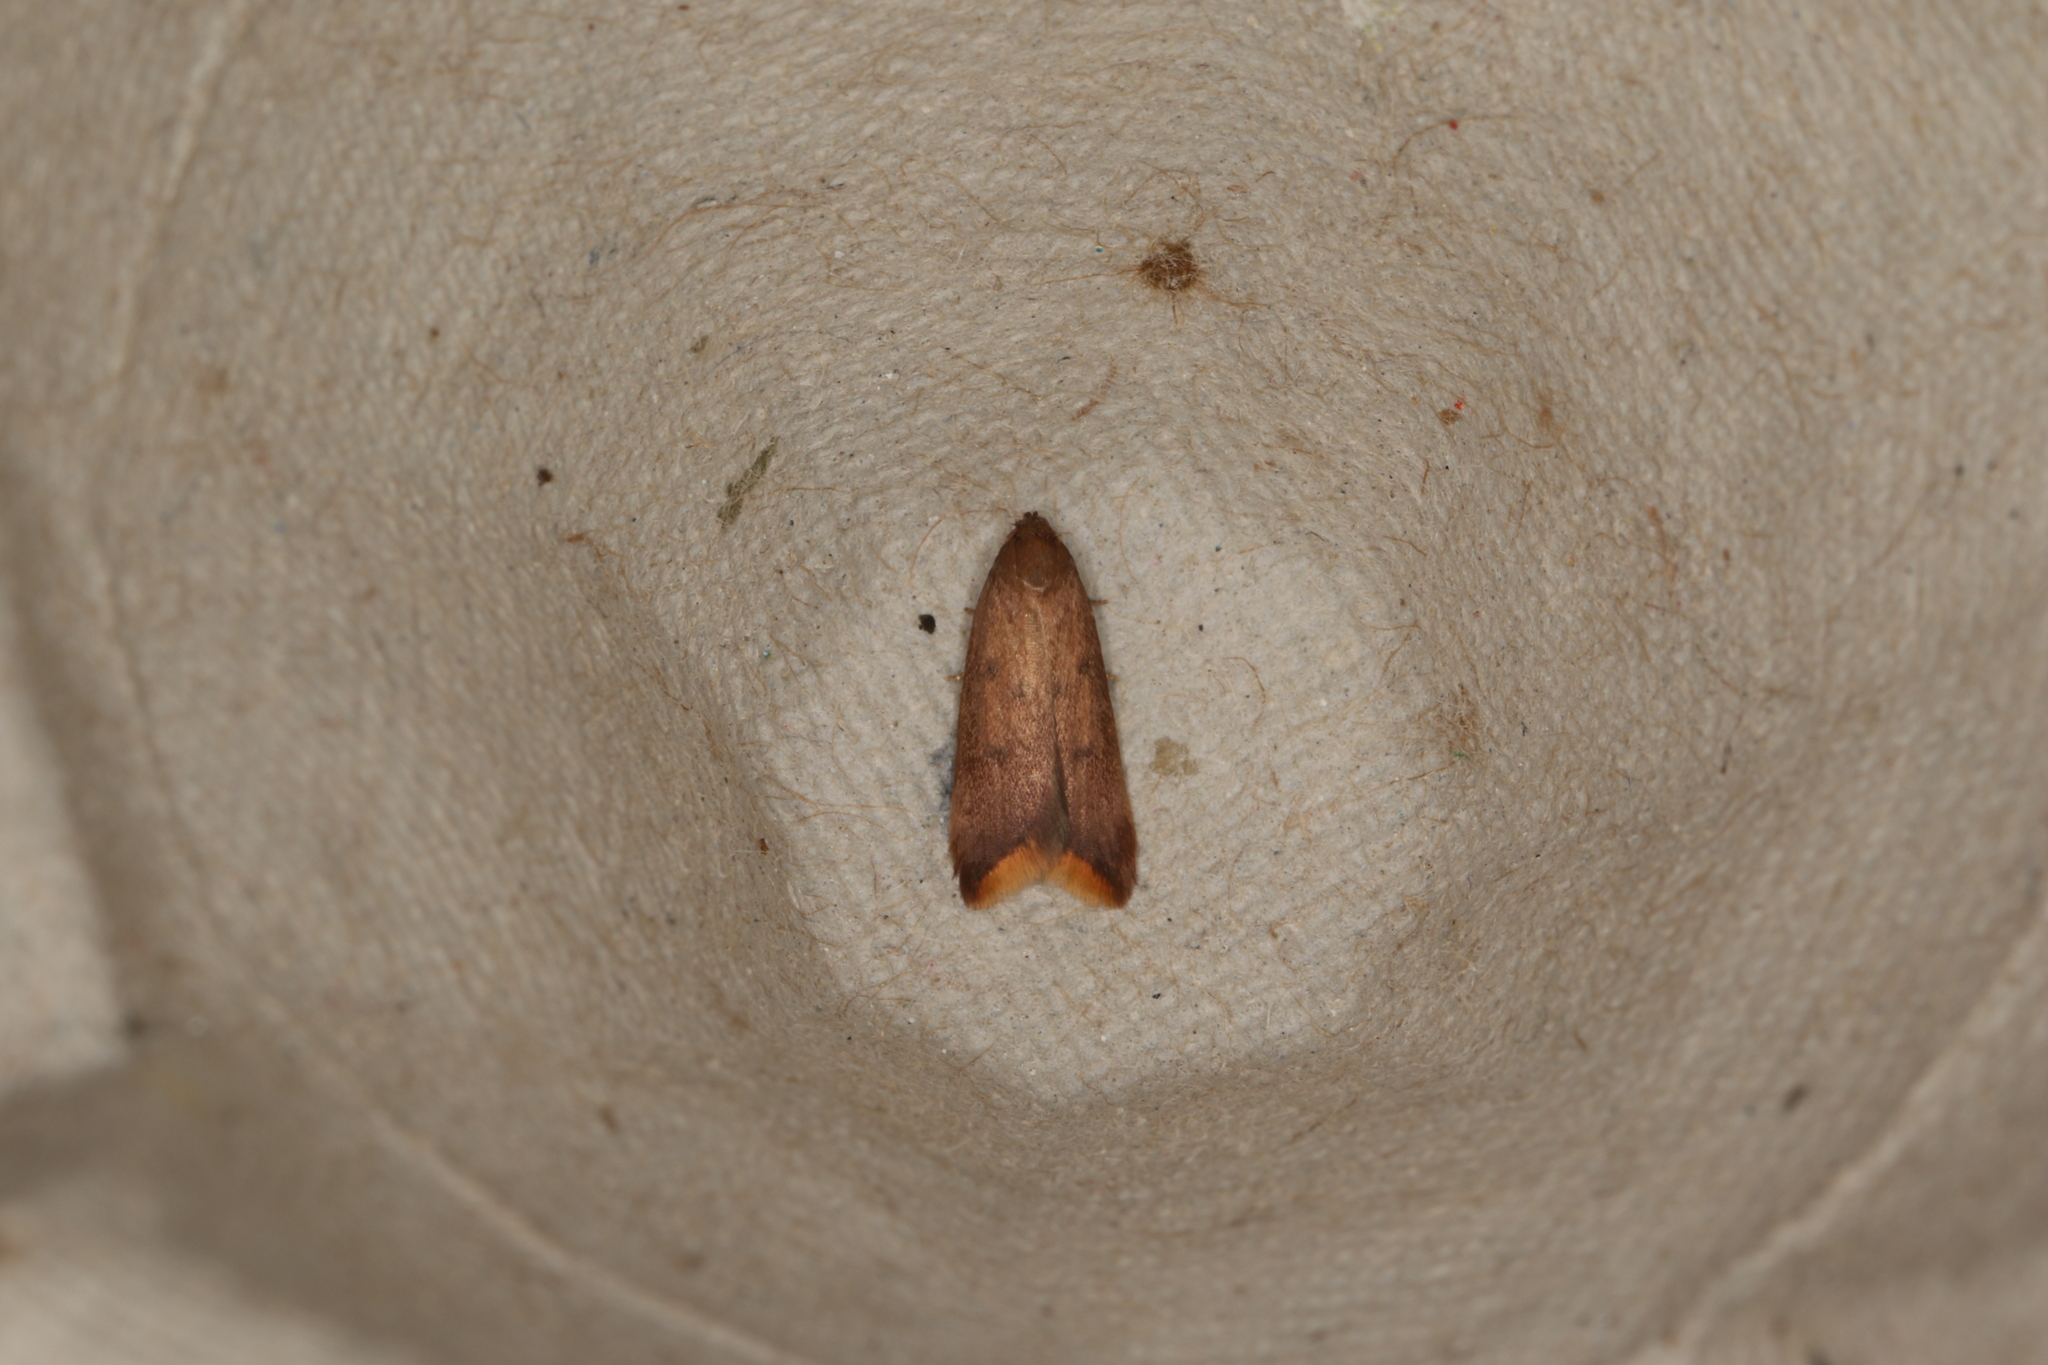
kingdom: Animalia
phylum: Arthropoda
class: Insecta
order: Lepidoptera
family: Oecophoridae
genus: Tachystola
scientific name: Tachystola acroxantha
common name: Ruddy streak
